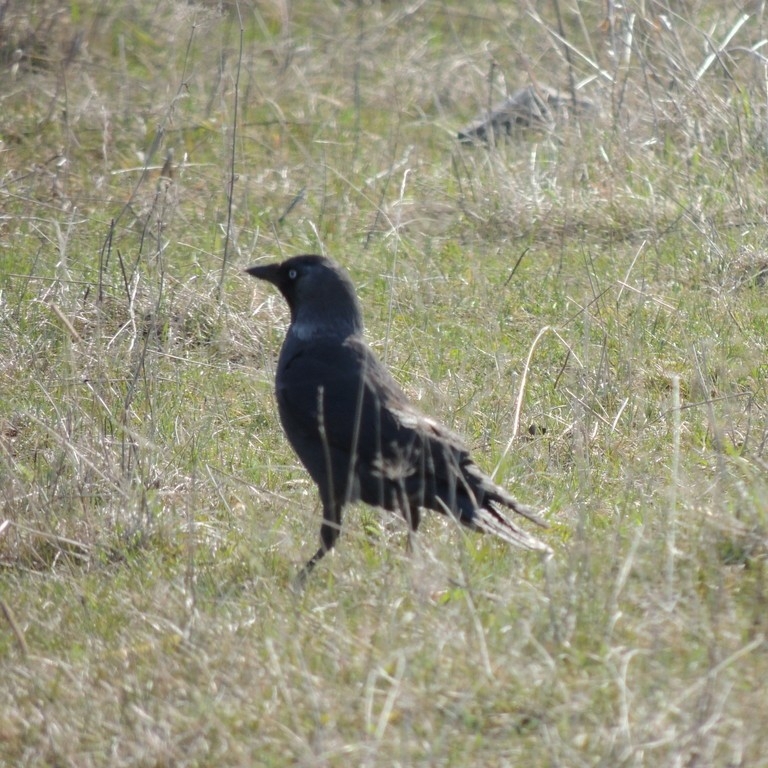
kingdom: Animalia
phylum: Chordata
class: Aves
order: Passeriformes
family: Corvidae
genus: Coloeus
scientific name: Coloeus monedula
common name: Western jackdaw
